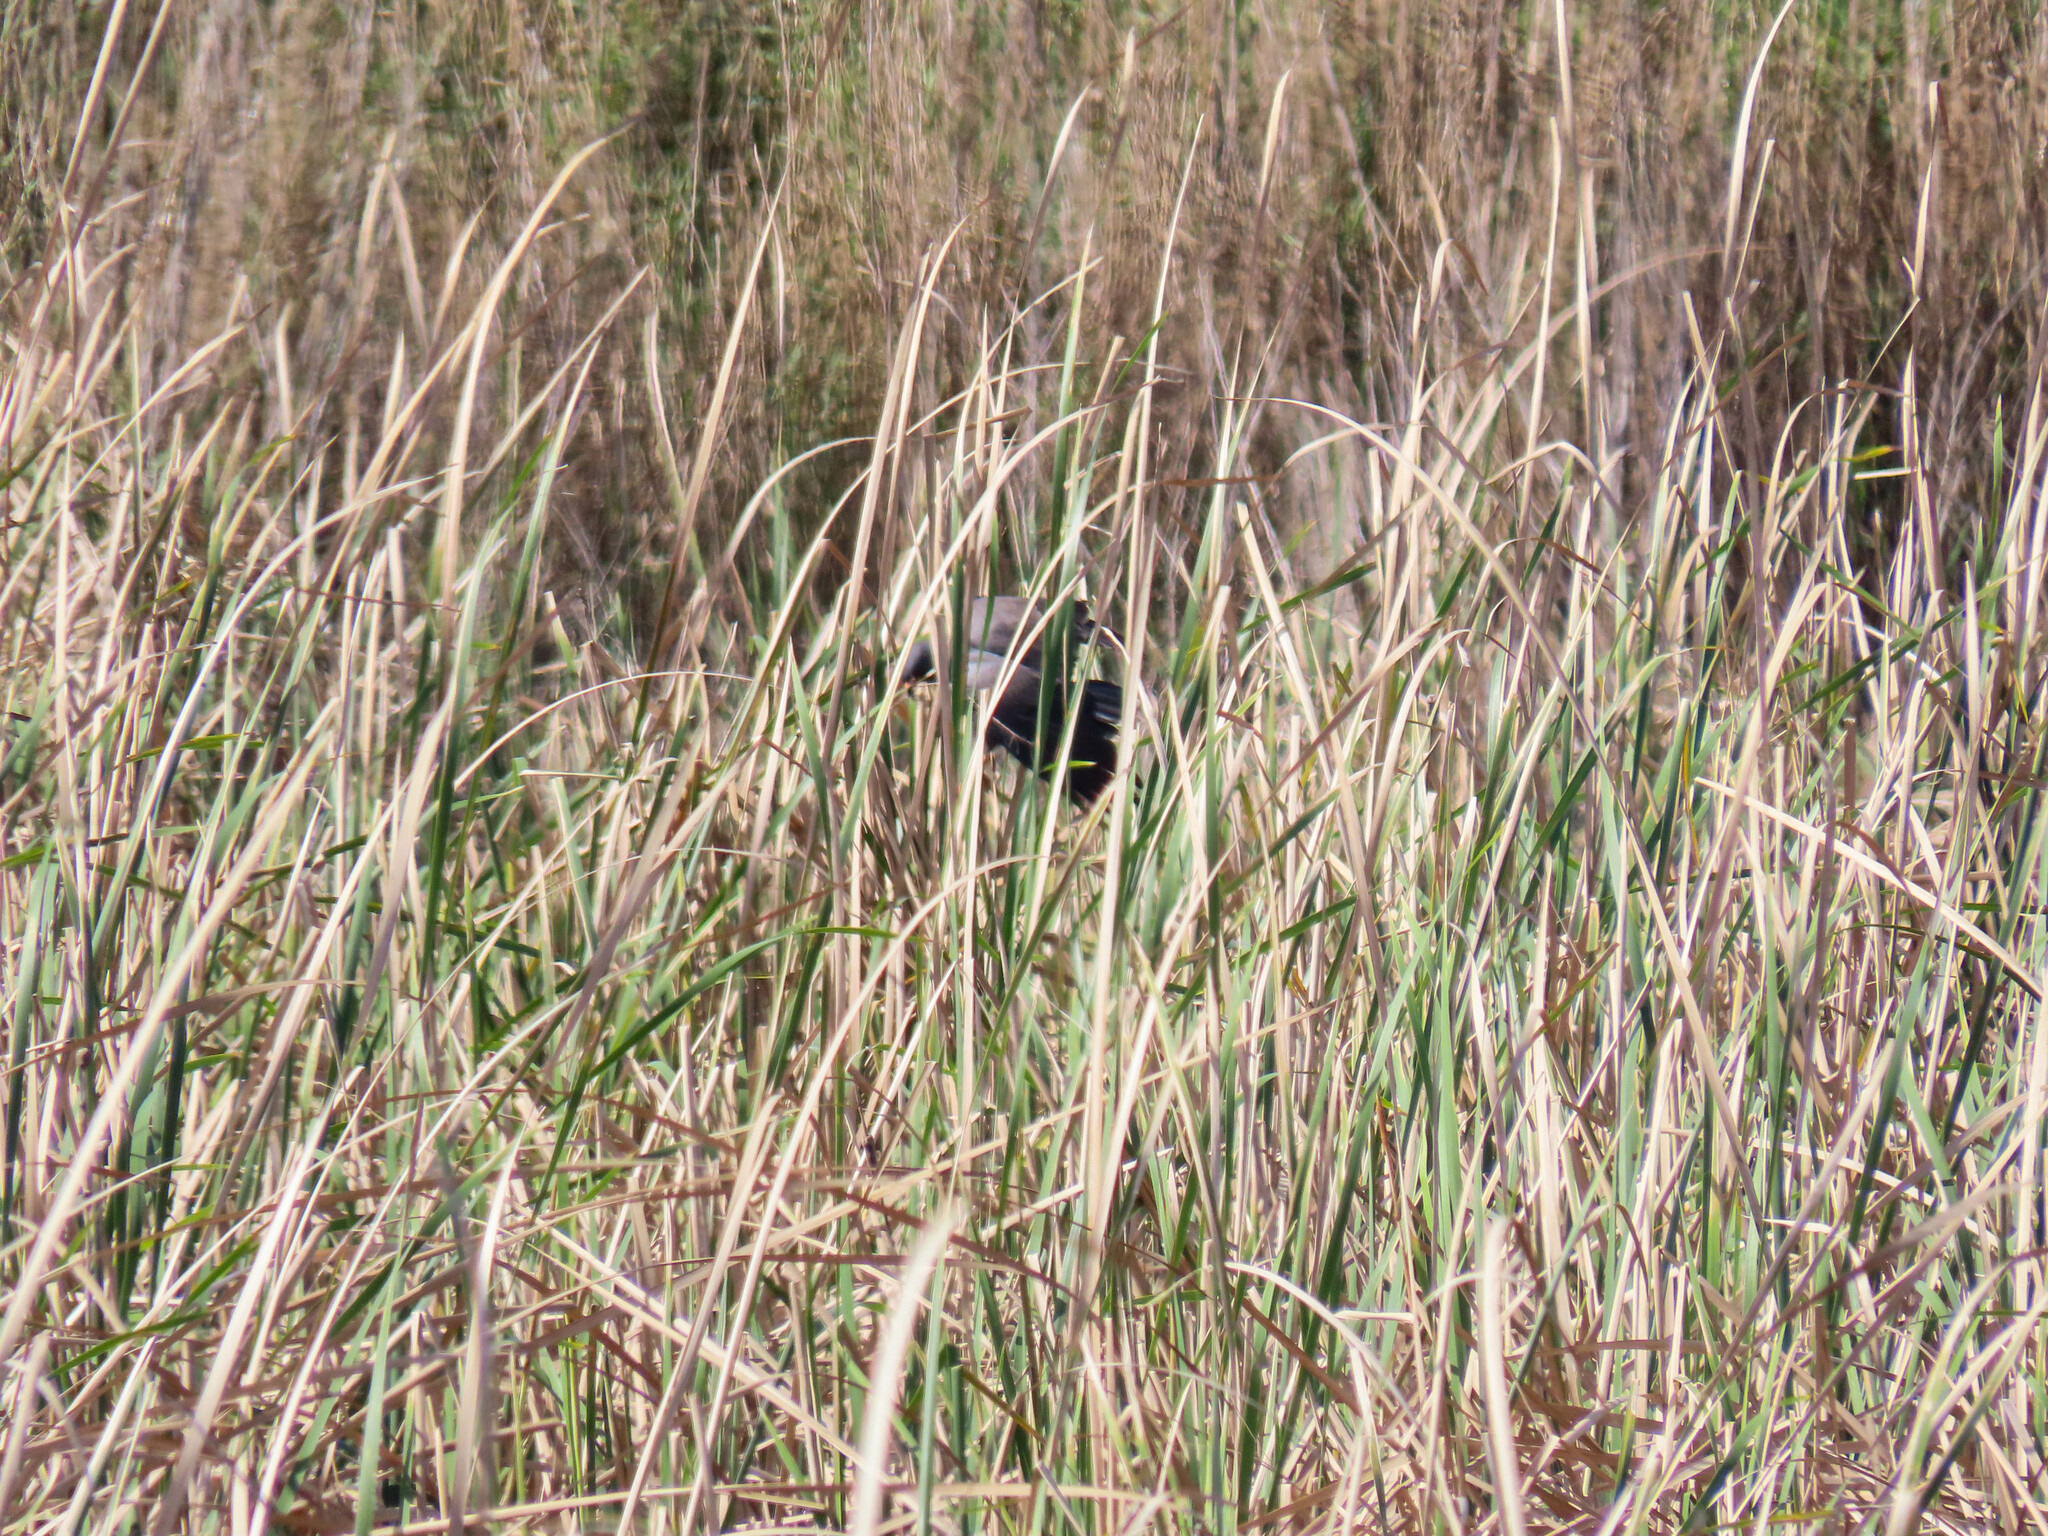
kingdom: Animalia
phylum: Chordata
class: Aves
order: Accipitriformes
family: Accipitridae
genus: Rostrhamus
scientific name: Rostrhamus sociabilis
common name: Snail kite
